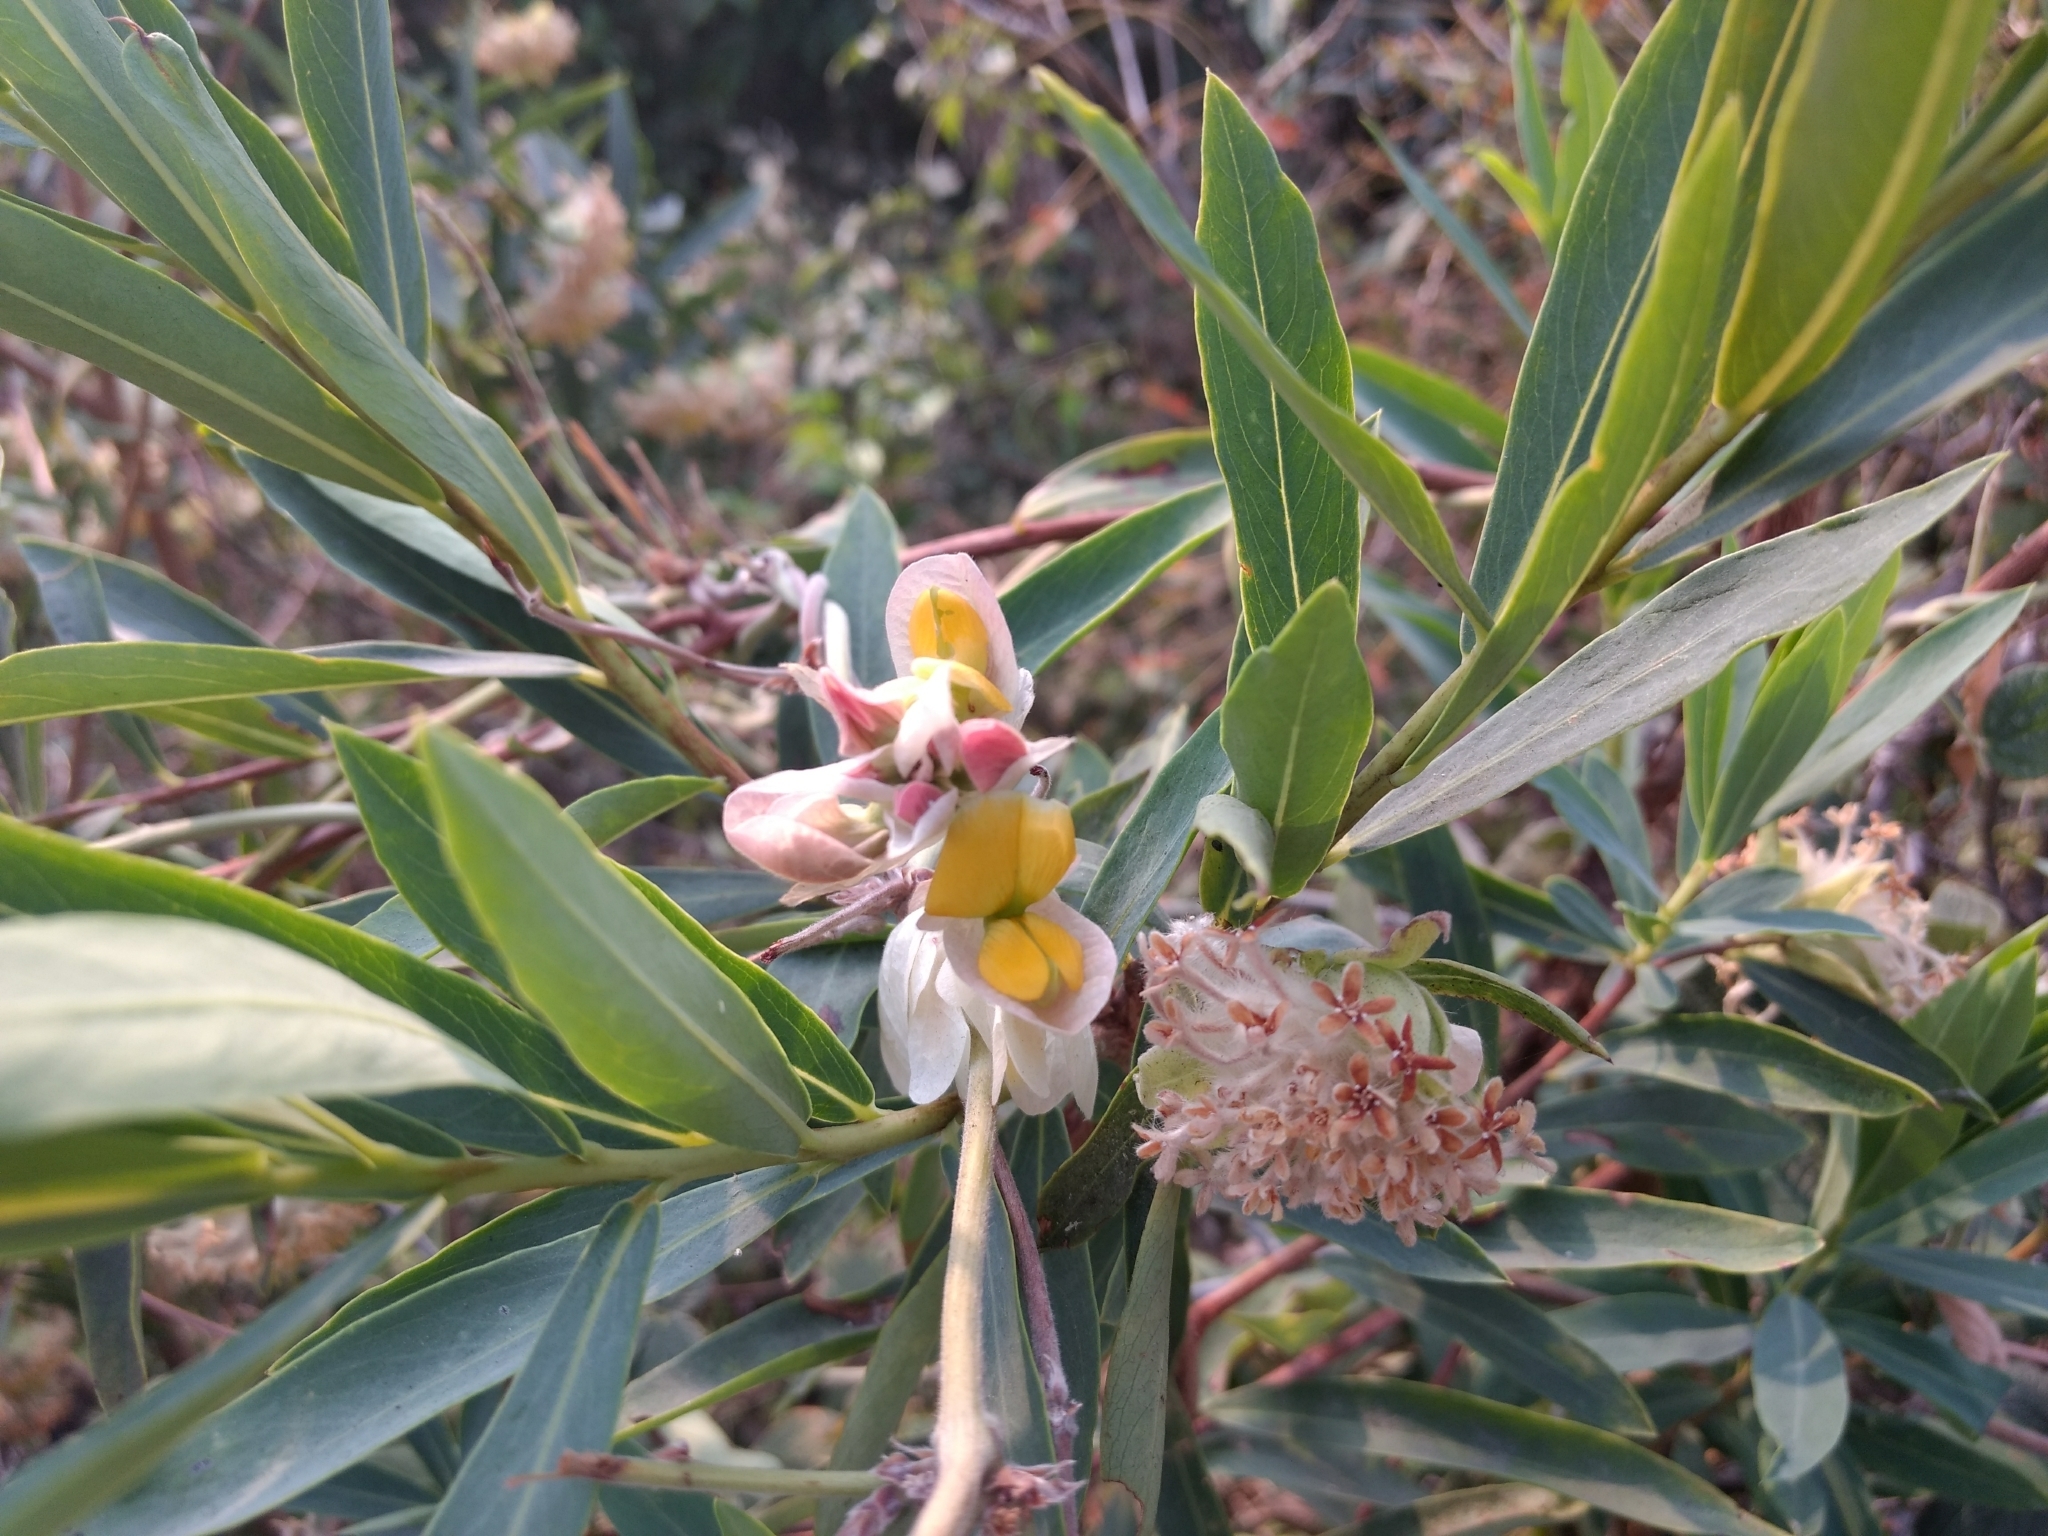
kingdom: Plantae
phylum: Tracheophyta
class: Magnoliopsida
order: Fabales
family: Fabaceae
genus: Paracalyx
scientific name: Paracalyx scariosus
